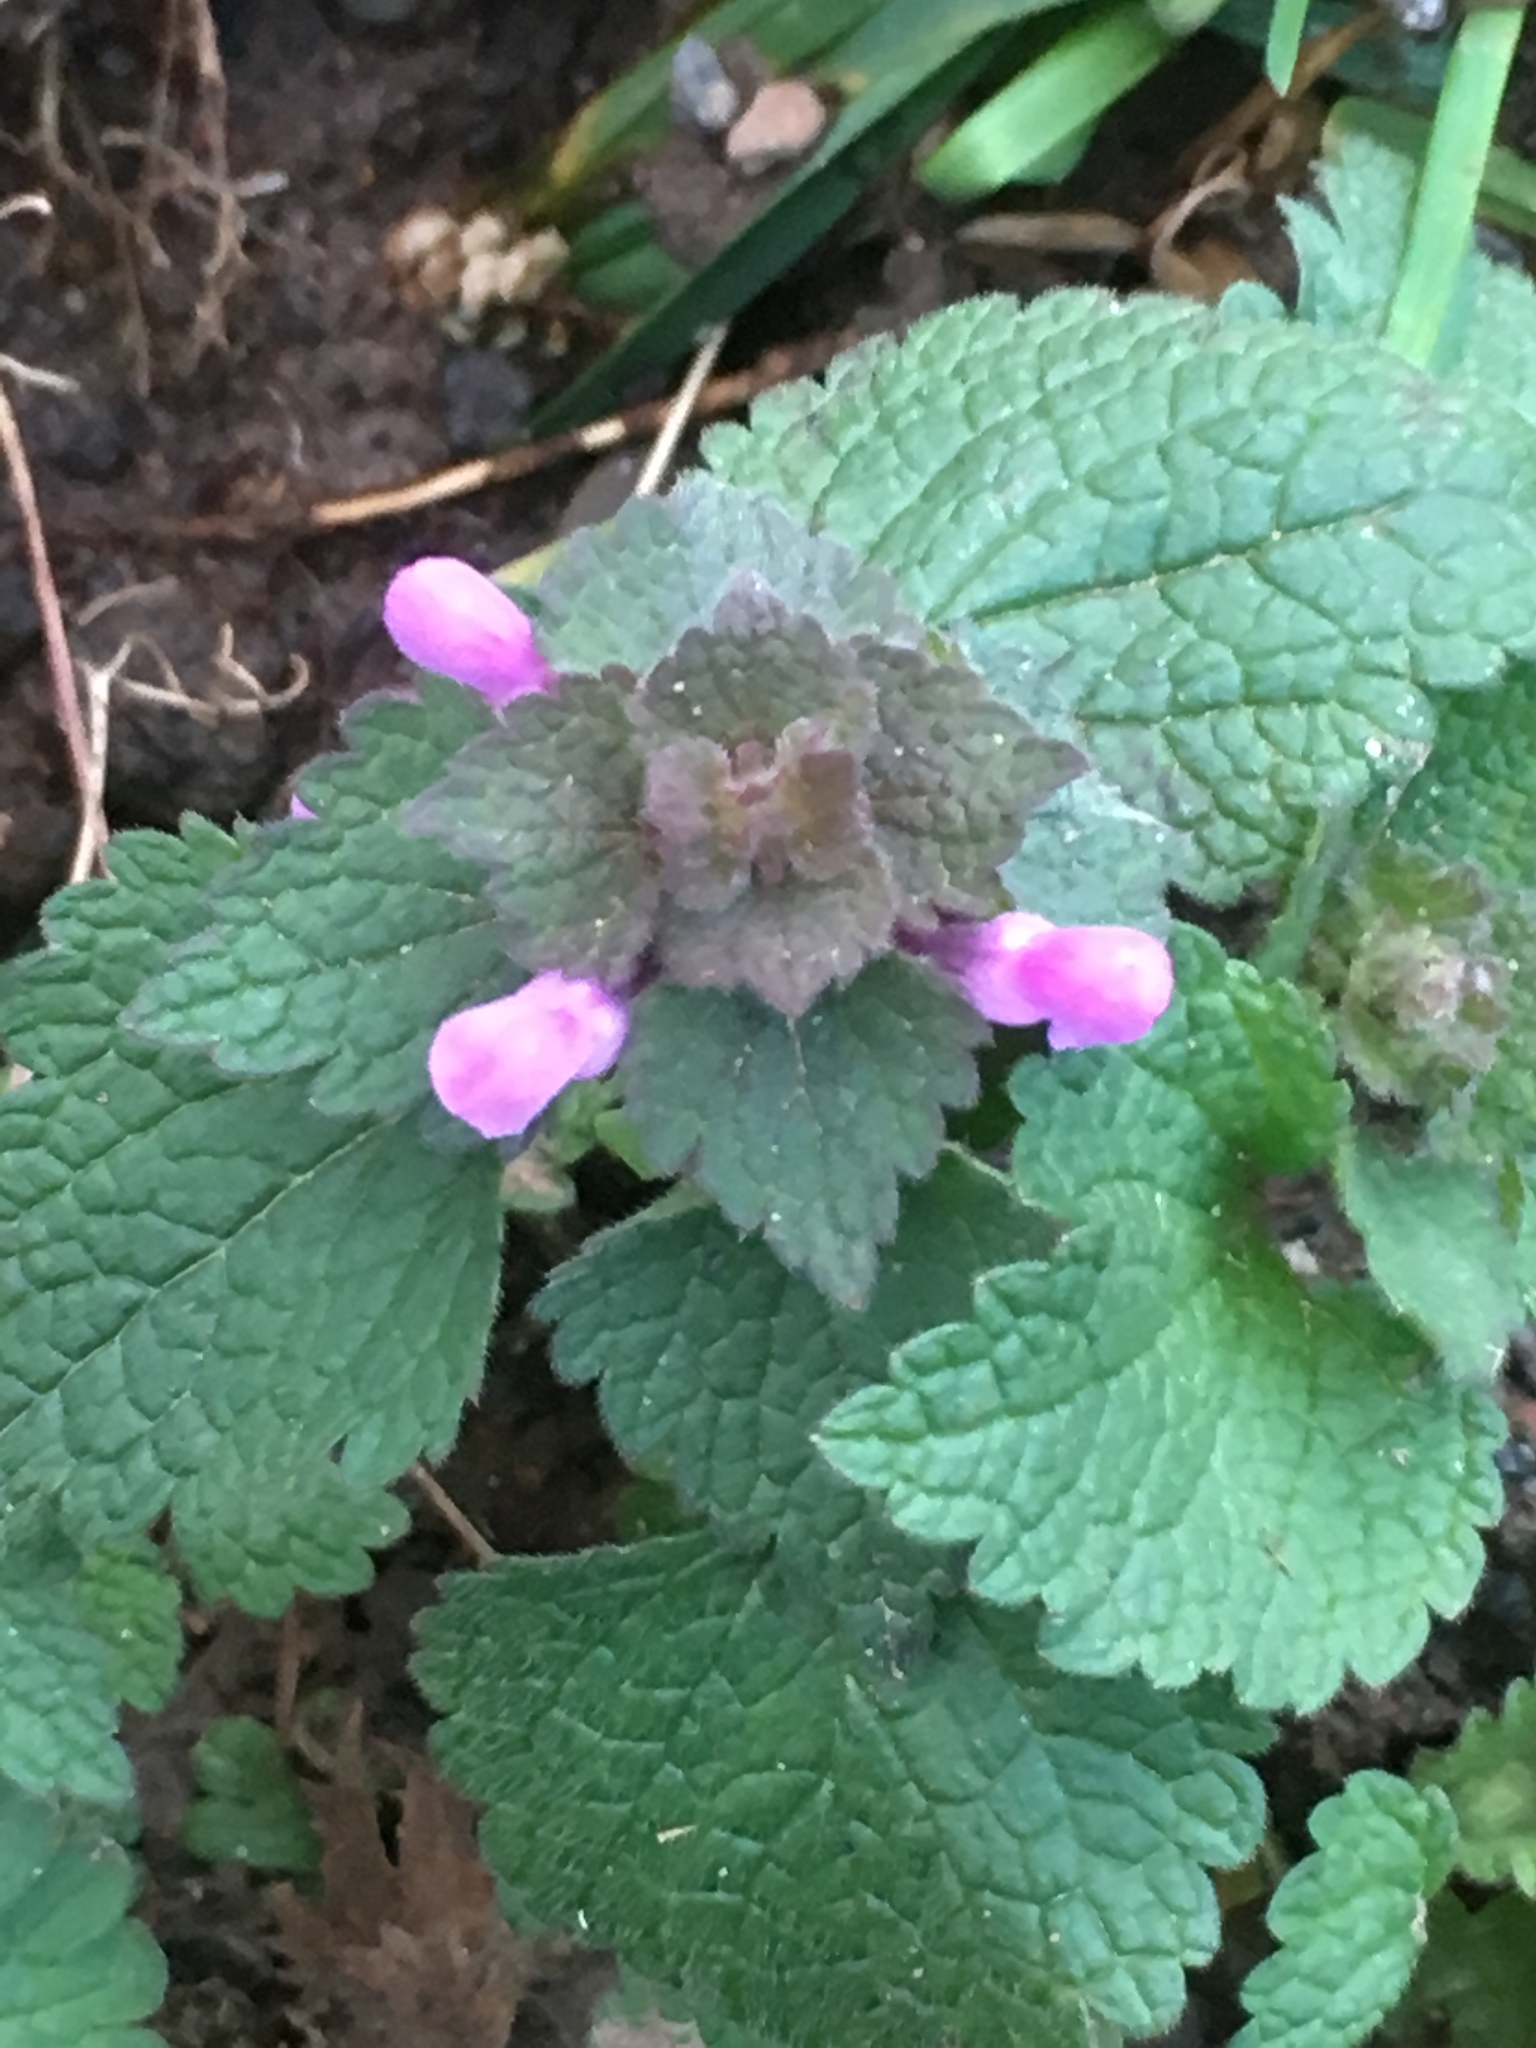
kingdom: Plantae
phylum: Tracheophyta
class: Magnoliopsida
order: Lamiales
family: Lamiaceae
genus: Lamium
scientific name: Lamium purpureum
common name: Red dead-nettle
